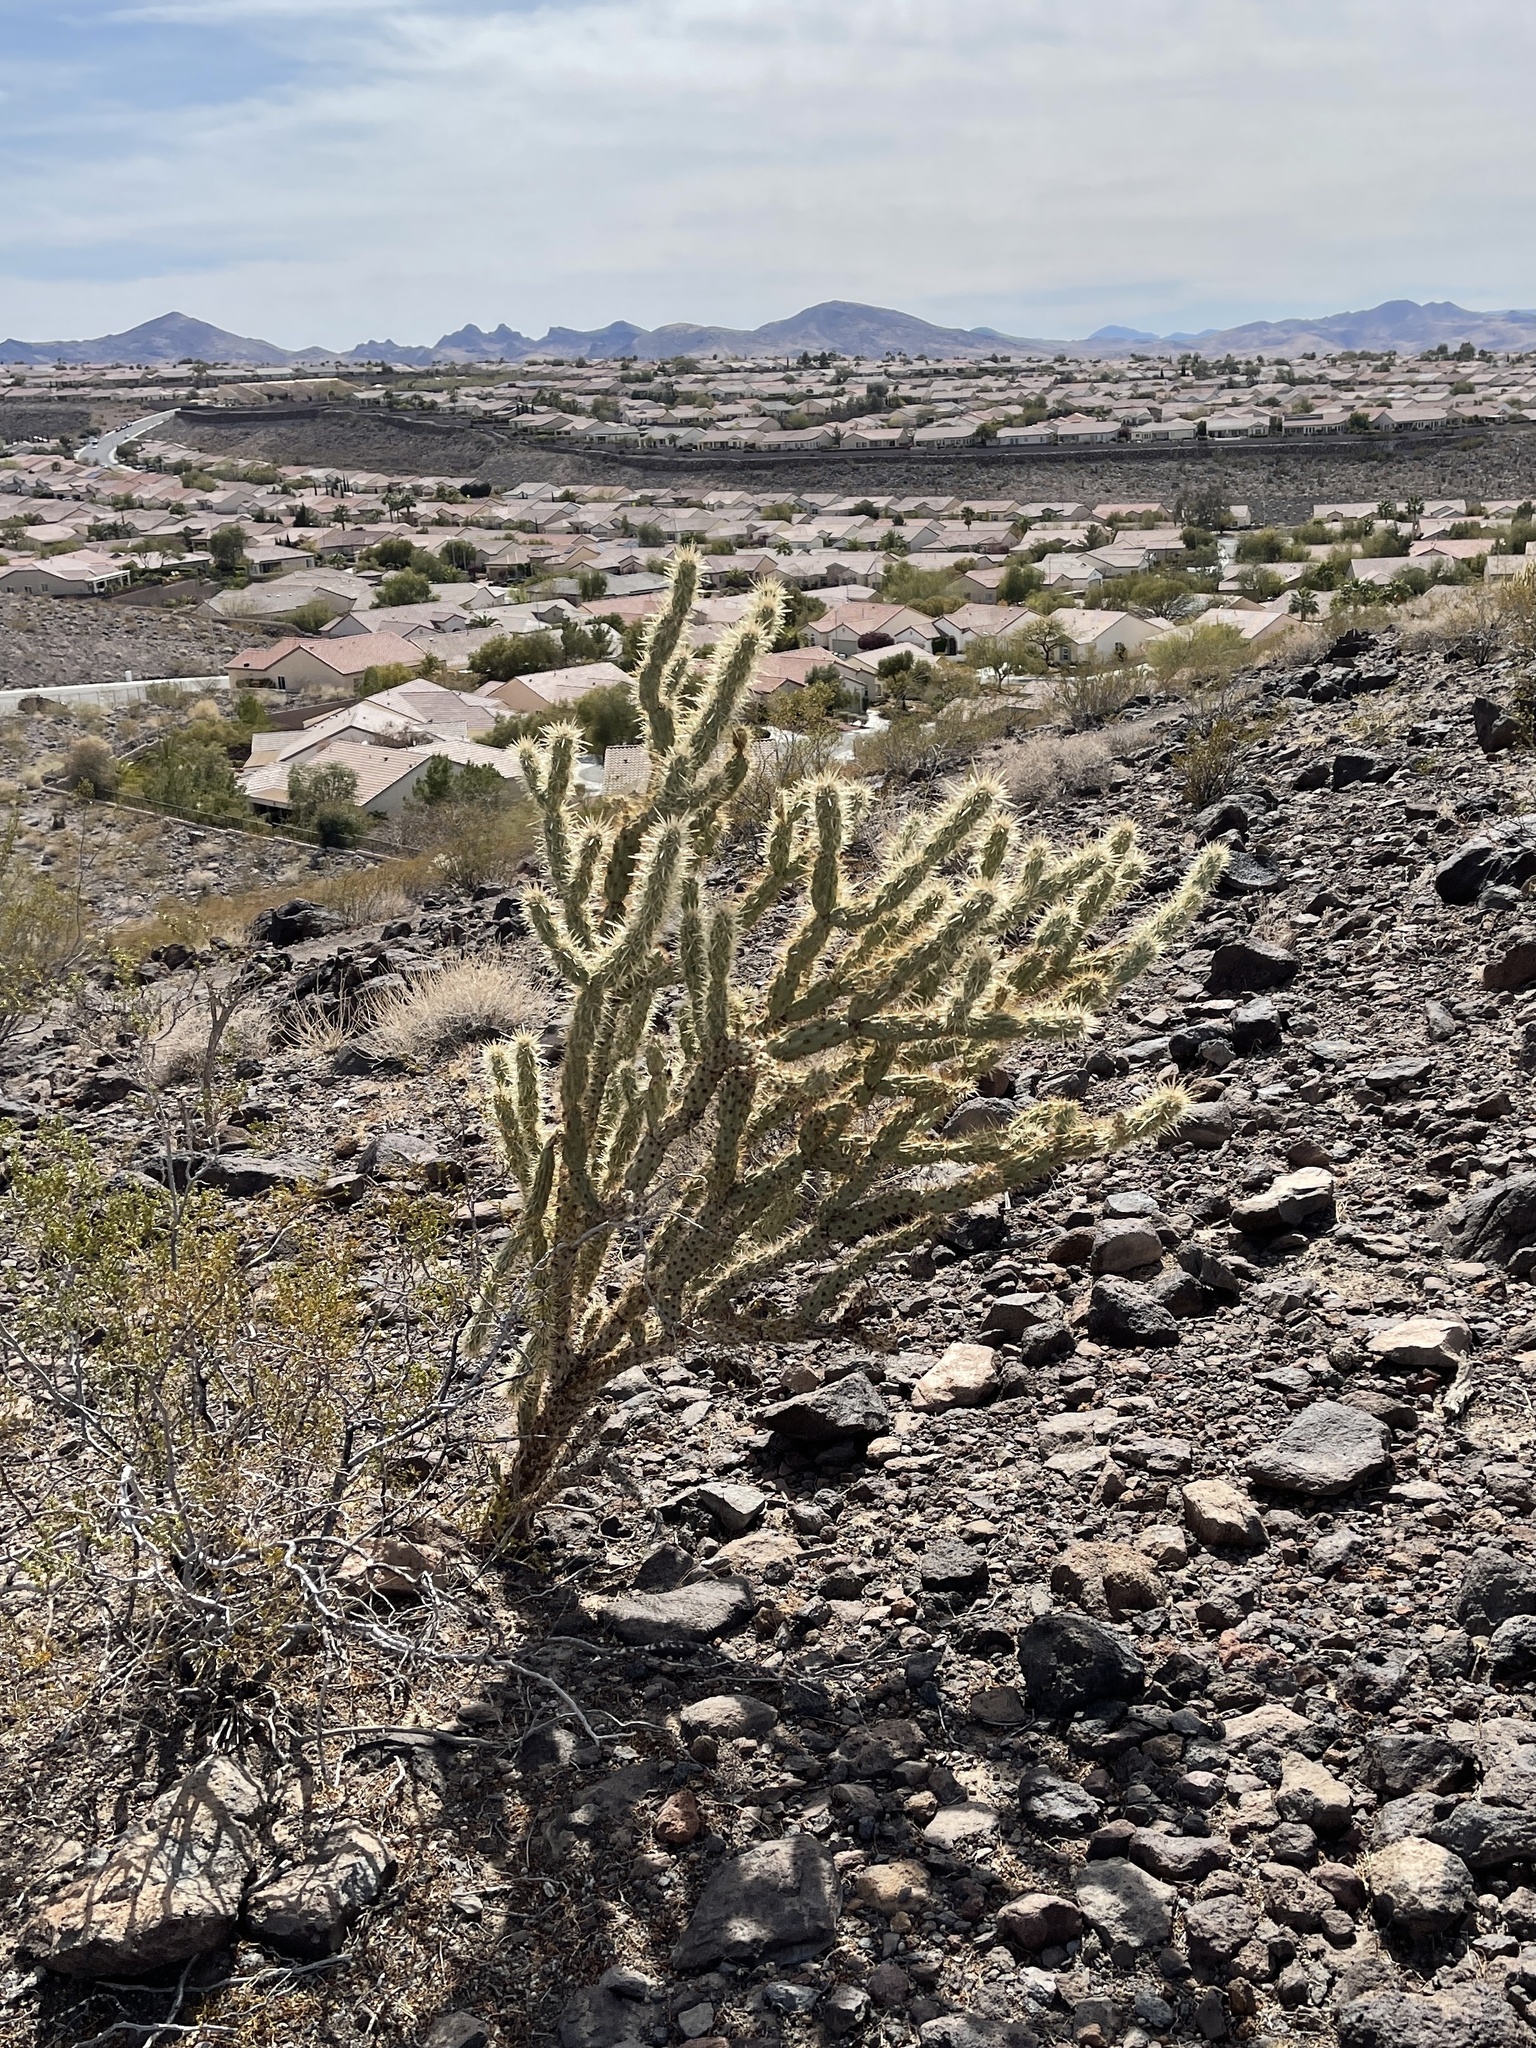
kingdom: Plantae
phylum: Tracheophyta
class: Magnoliopsida
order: Caryophyllales
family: Cactaceae
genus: Cylindropuntia
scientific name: Cylindropuntia acanthocarpa
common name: Buckhorn cholla
